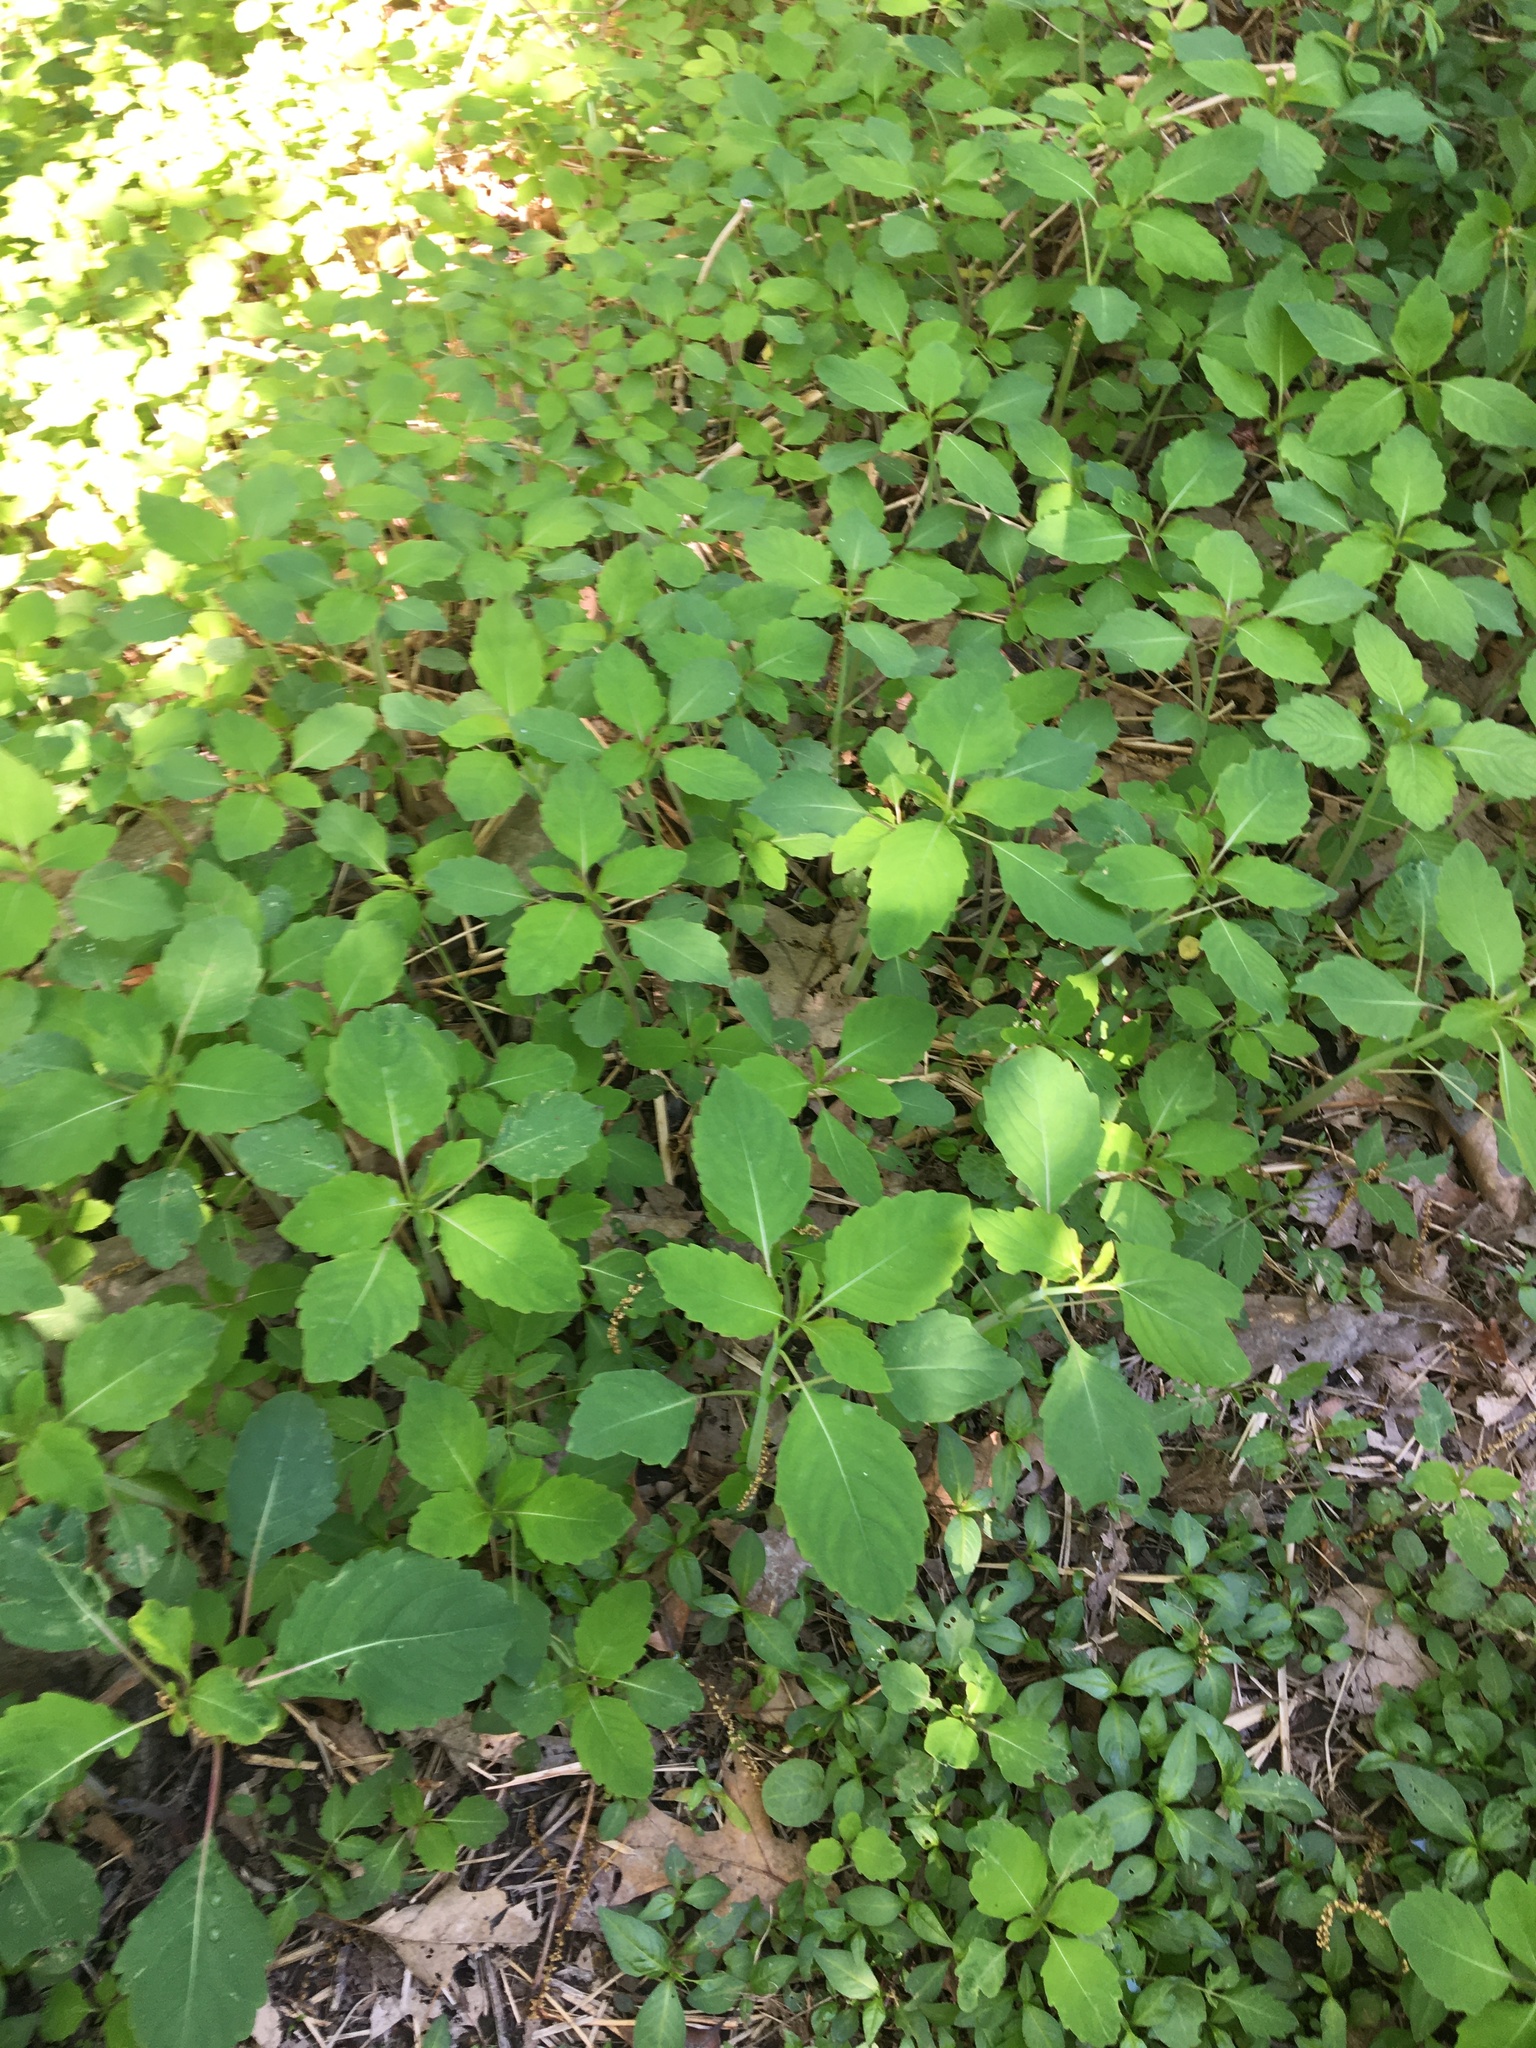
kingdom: Plantae
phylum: Tracheophyta
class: Magnoliopsida
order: Ericales
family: Balsaminaceae
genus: Impatiens
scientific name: Impatiens
